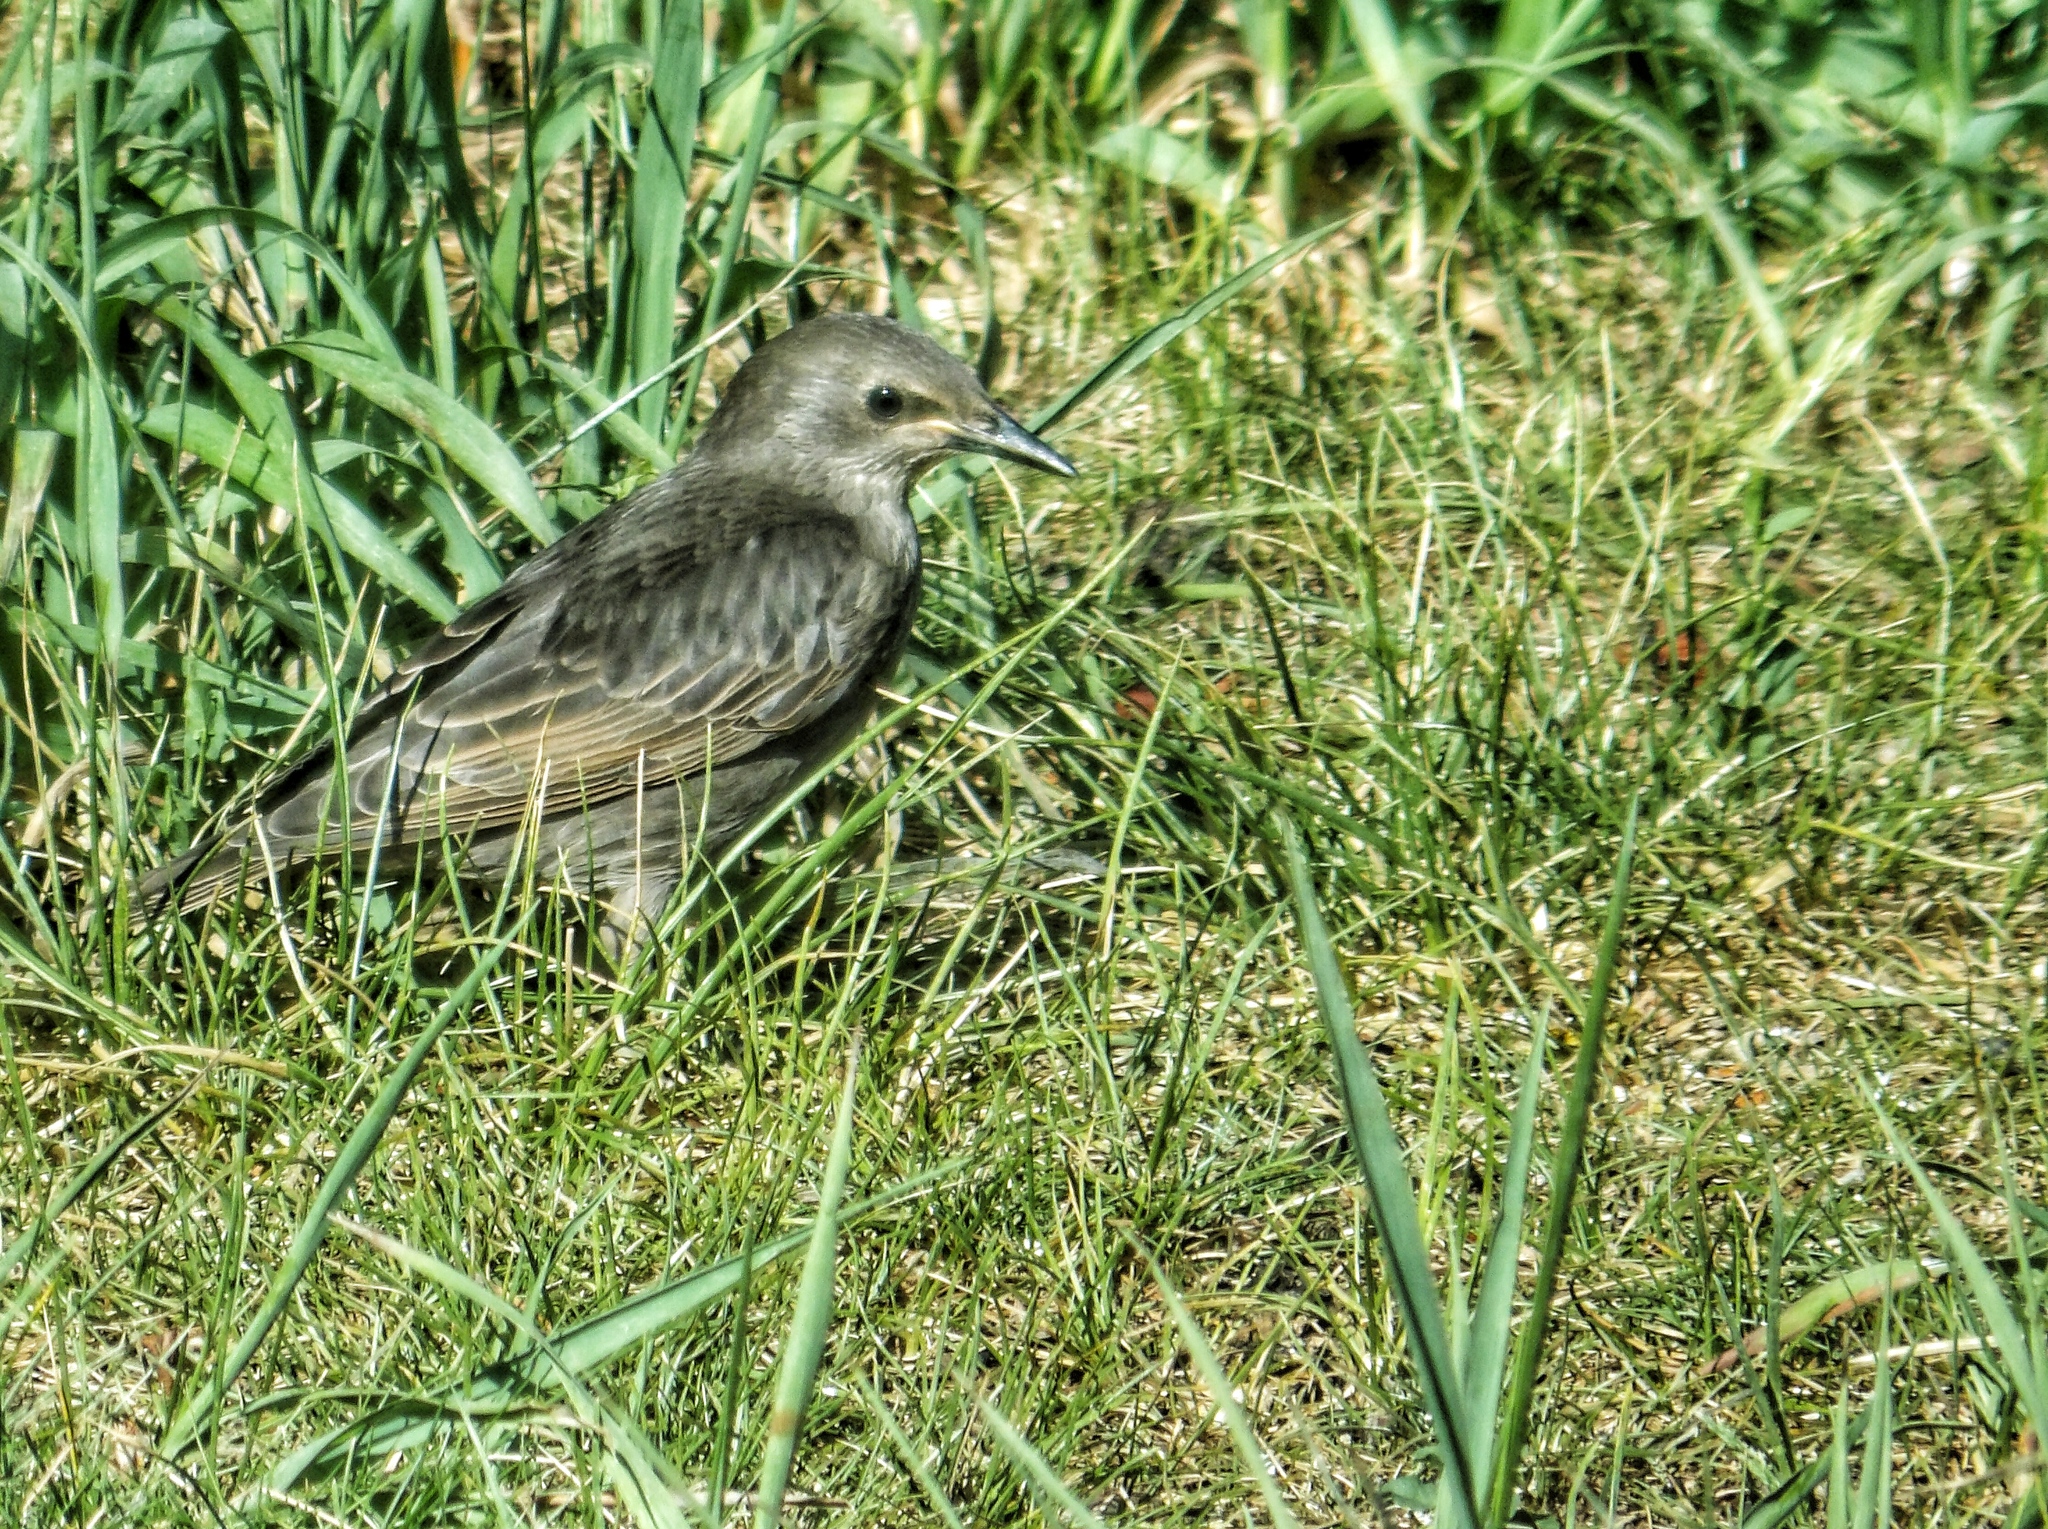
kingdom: Animalia
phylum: Chordata
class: Aves
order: Passeriformes
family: Sturnidae
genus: Sturnus
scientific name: Sturnus vulgaris
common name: Common starling
